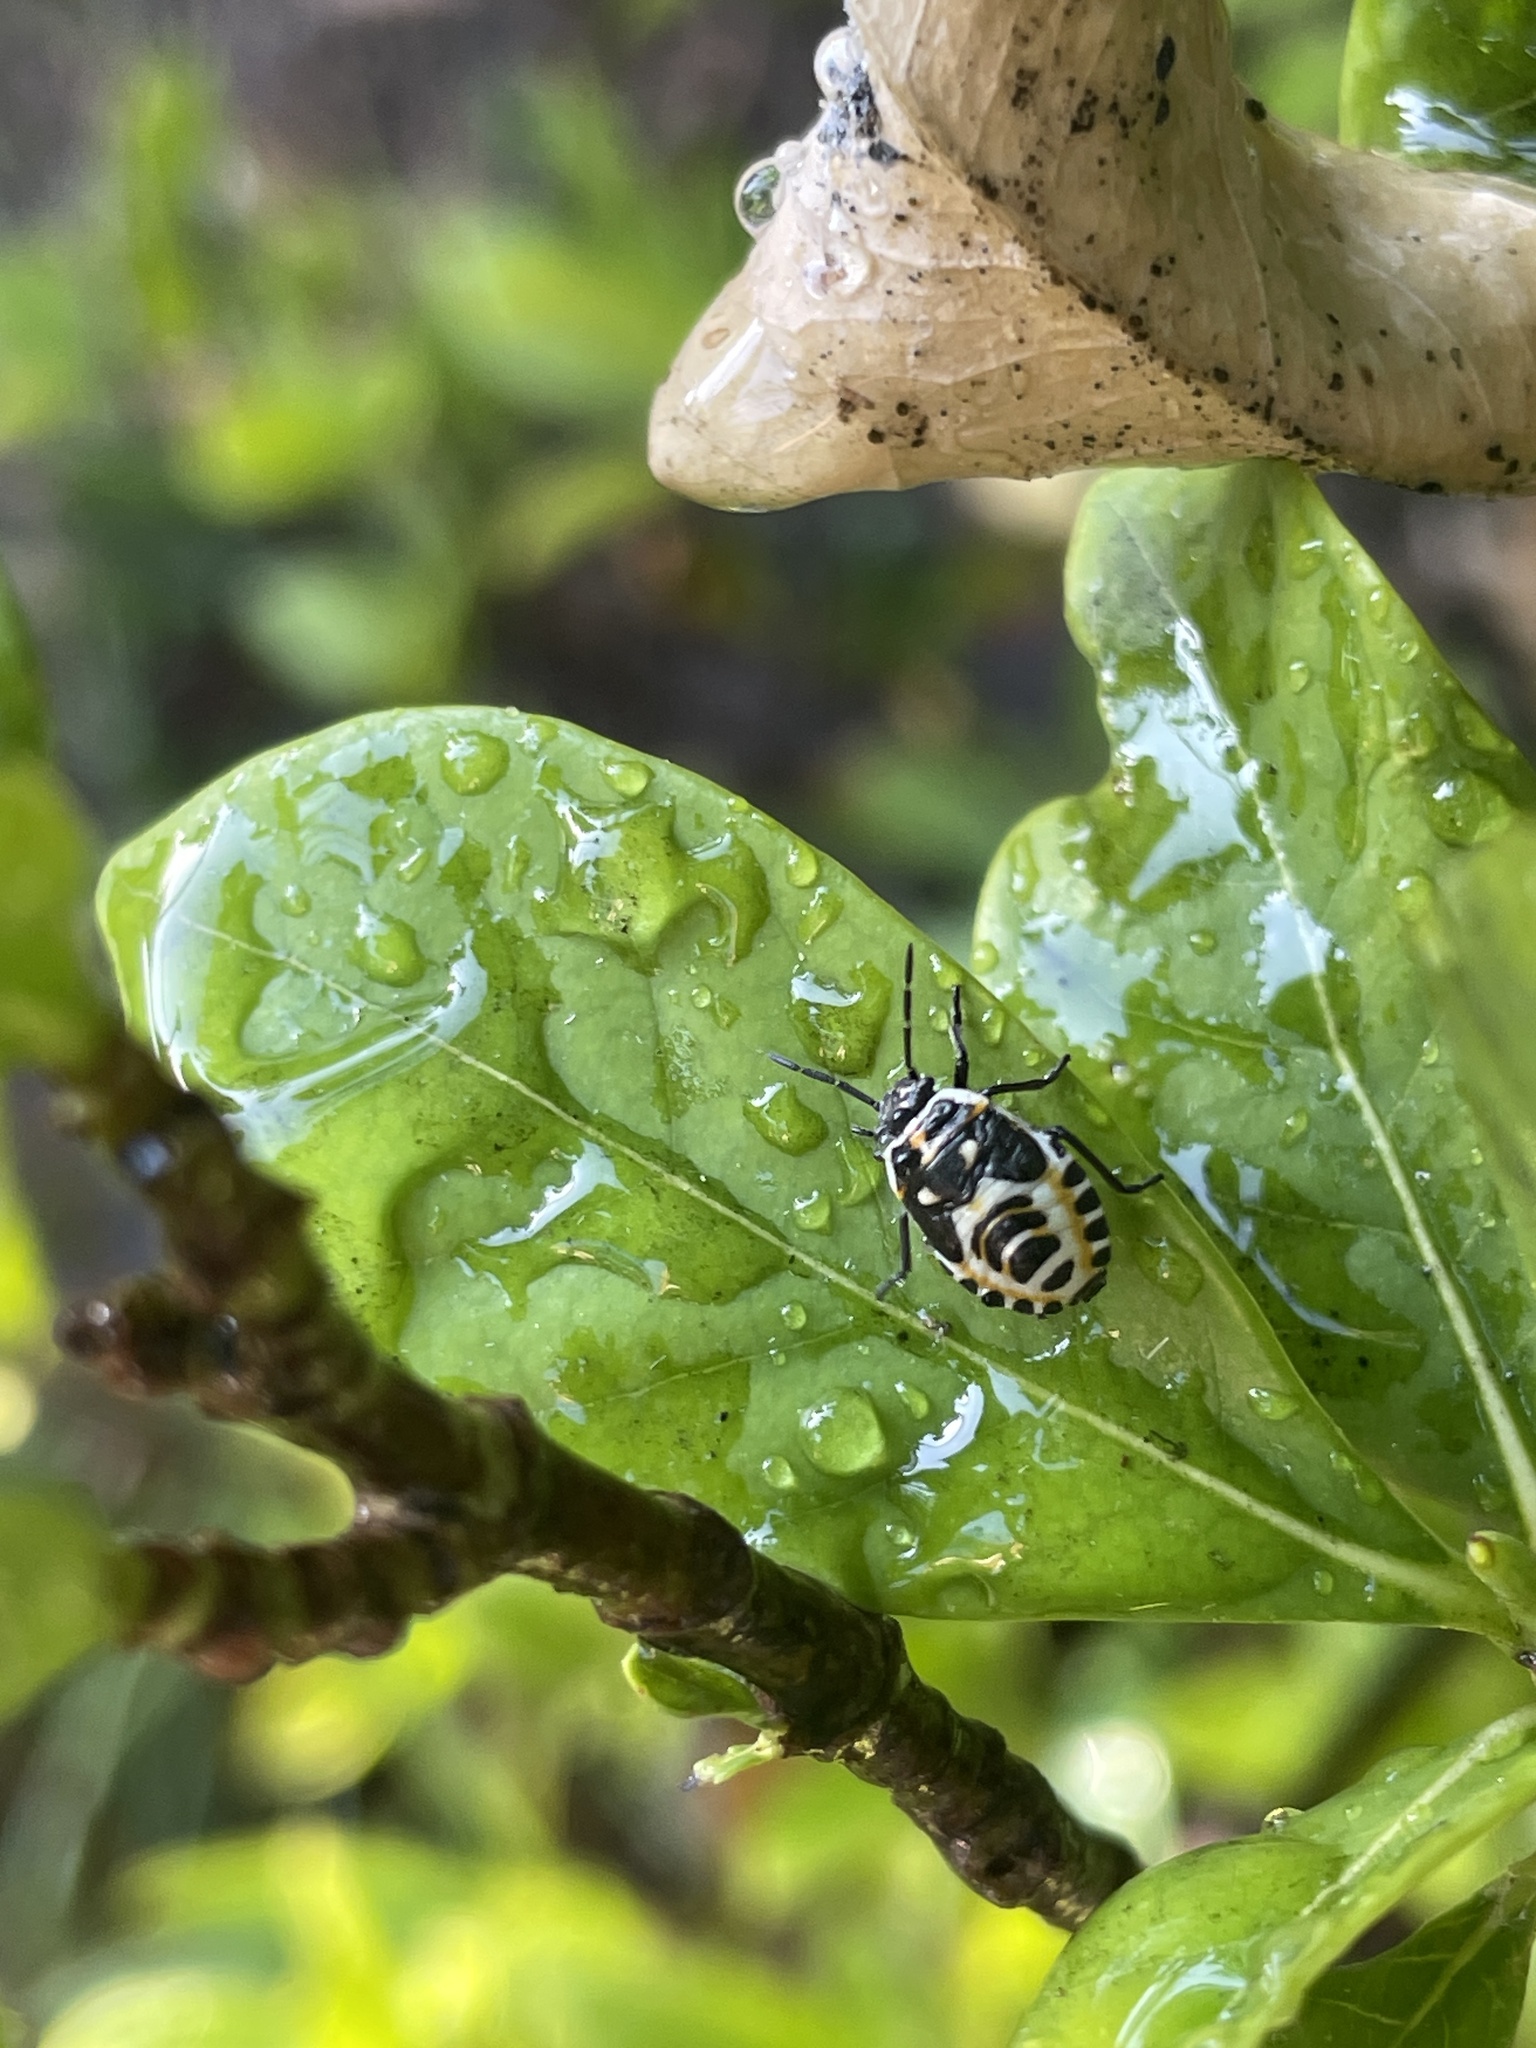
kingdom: Animalia
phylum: Arthropoda
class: Insecta
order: Hemiptera
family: Pentatomidae
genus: Eurydema
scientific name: Eurydema oleracea
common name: Cabbage bug
